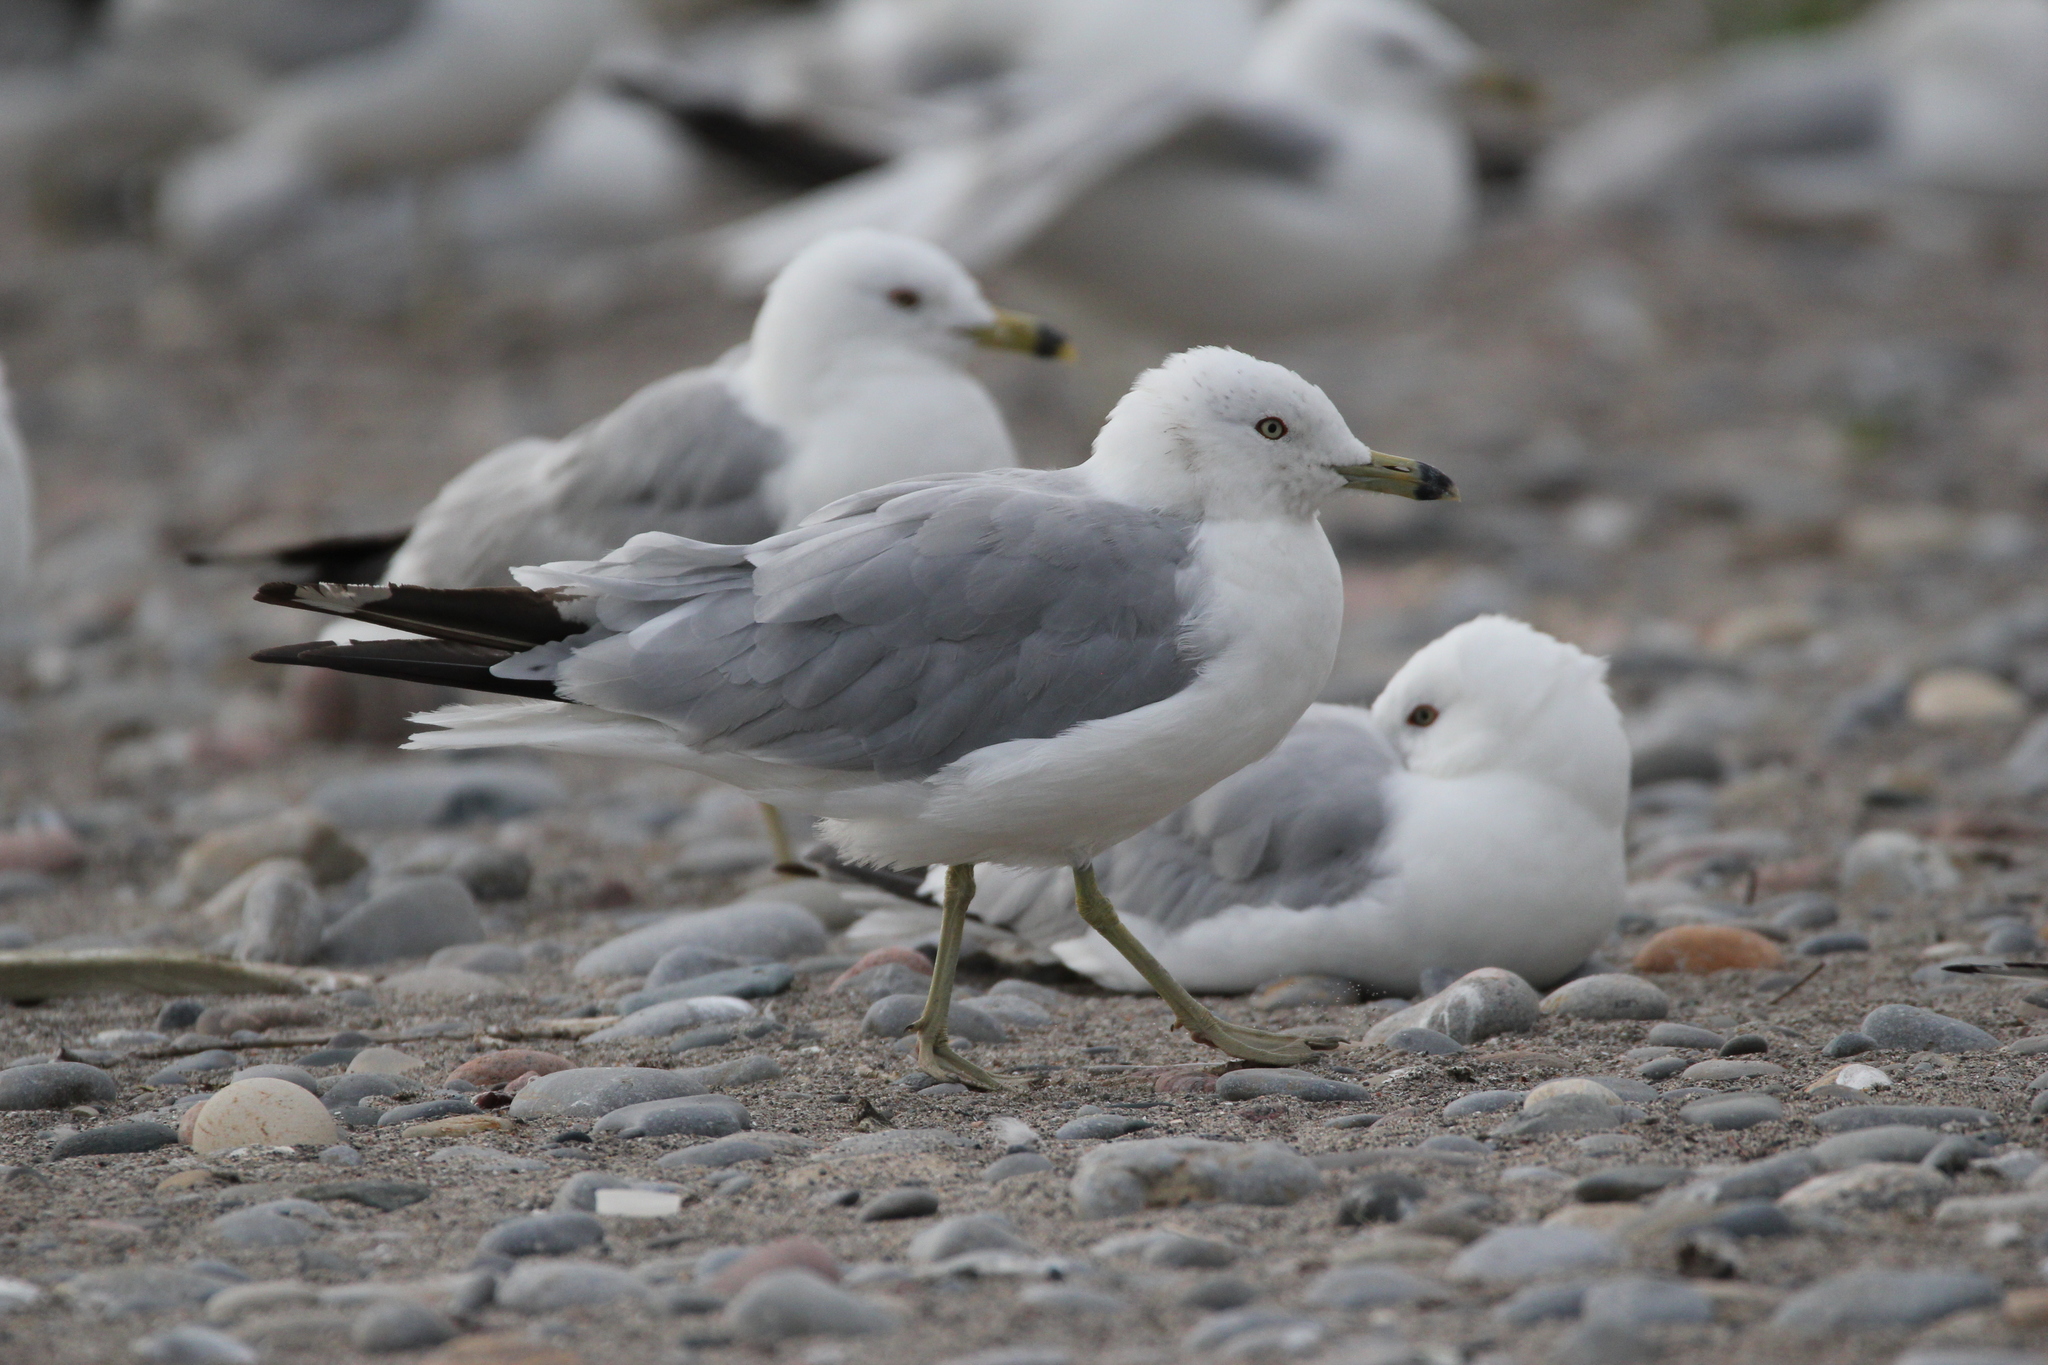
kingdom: Animalia
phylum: Chordata
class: Aves
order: Charadriiformes
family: Laridae
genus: Larus
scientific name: Larus delawarensis
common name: Ring-billed gull
